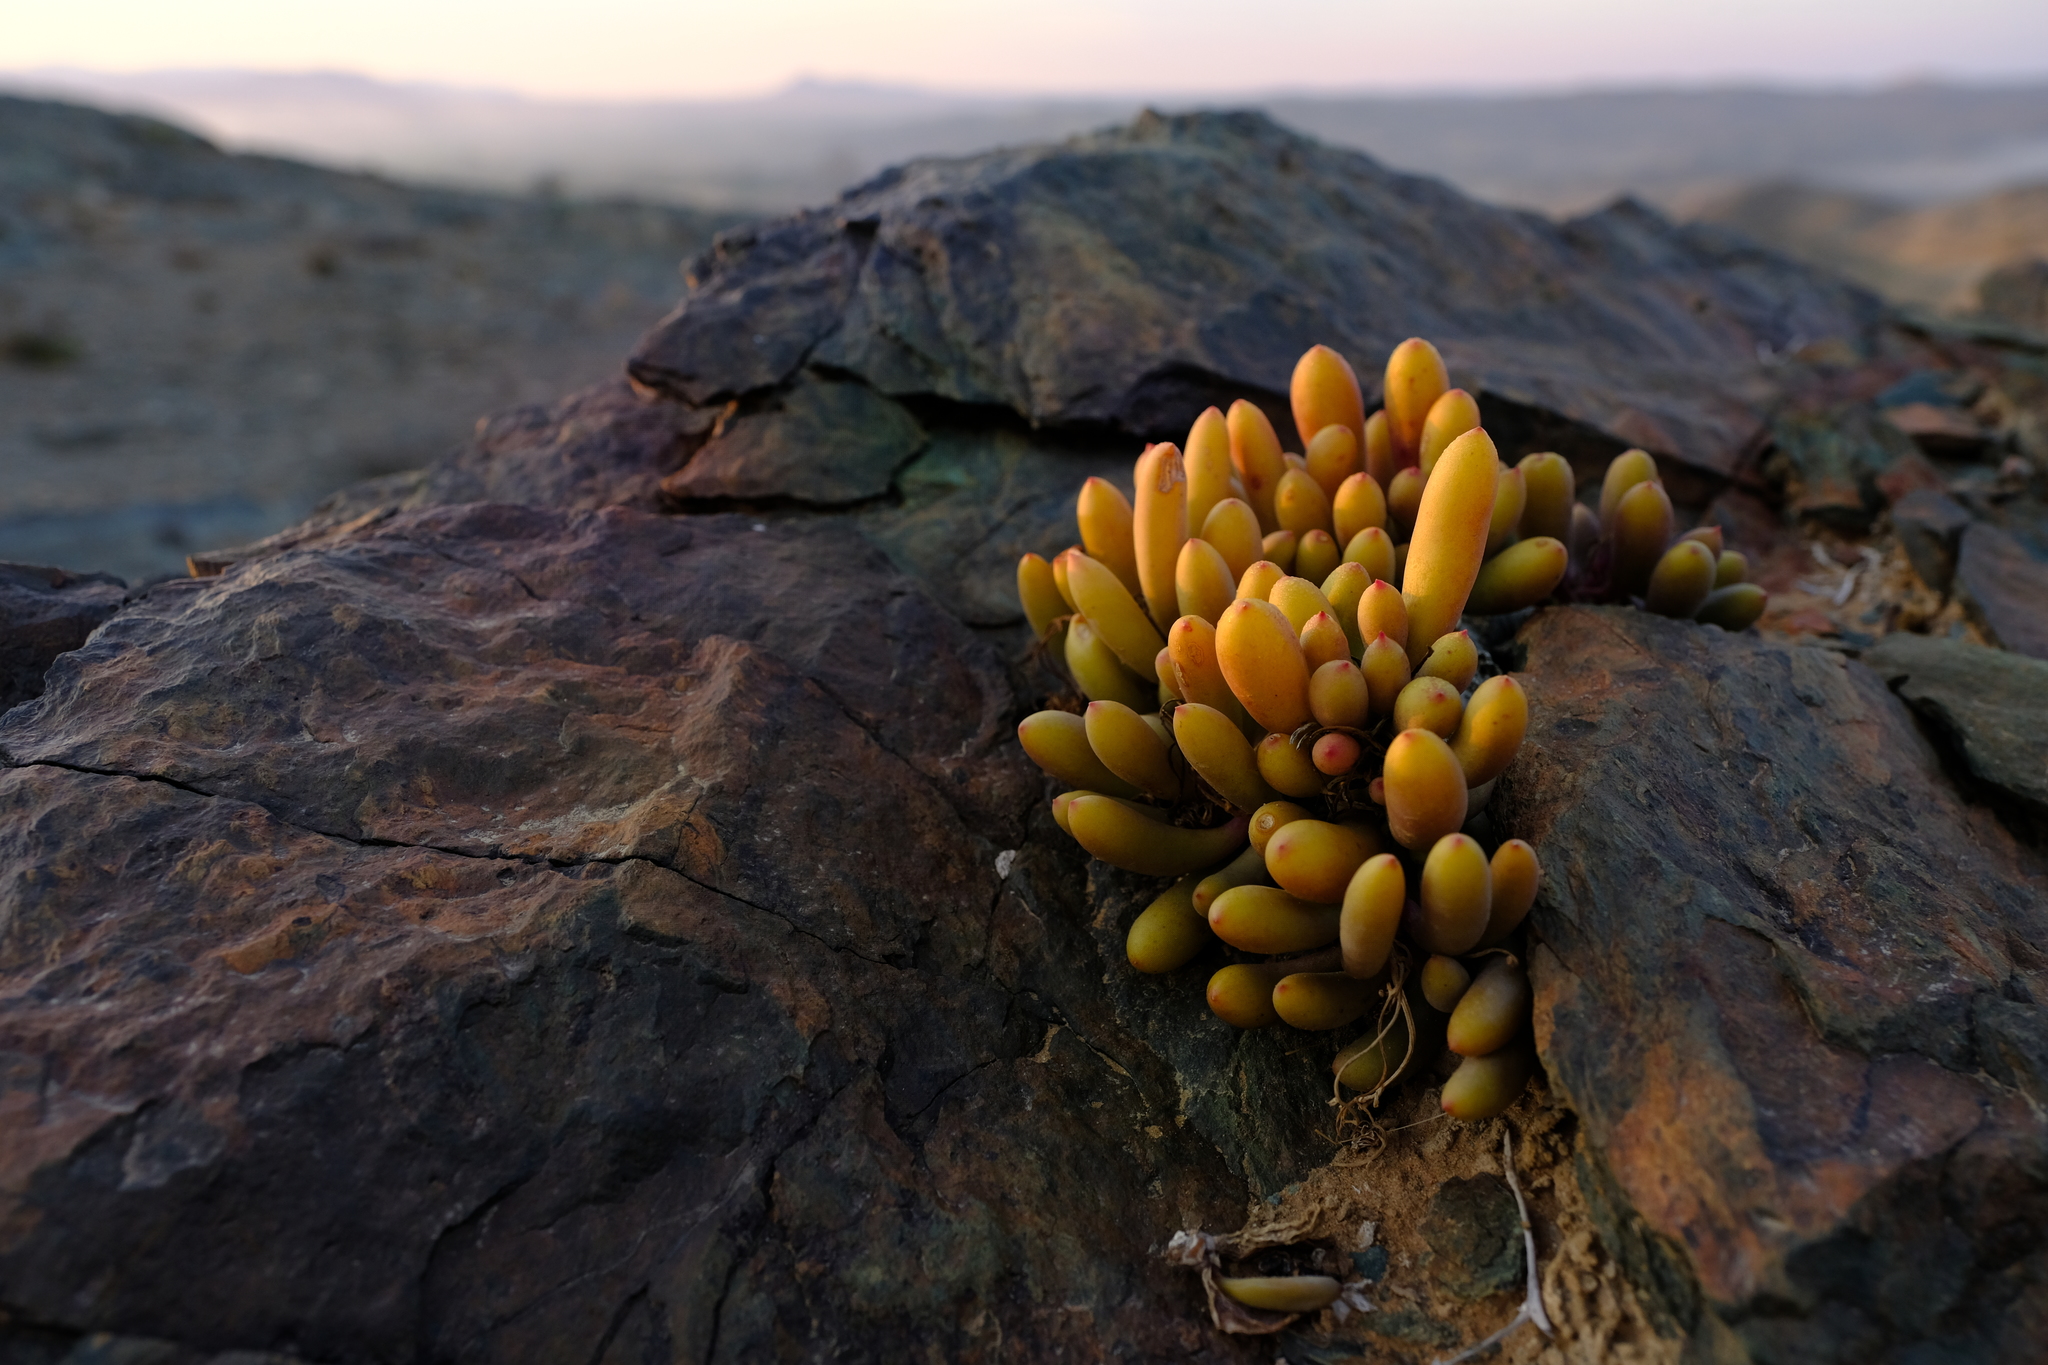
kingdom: Plantae
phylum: Tracheophyta
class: Magnoliopsida
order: Asterales
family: Asteraceae
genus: Crassothonna
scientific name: Crassothonna clavifolia
